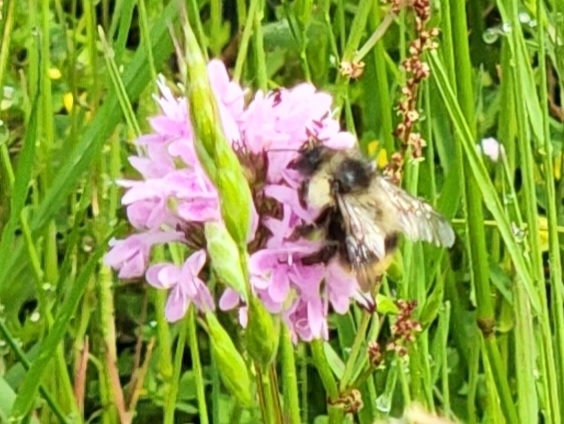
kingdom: Animalia
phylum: Arthropoda
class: Insecta
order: Hymenoptera
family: Apidae
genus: Bombus
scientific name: Bombus mixtus
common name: Fuzzy-horned bumble bee
